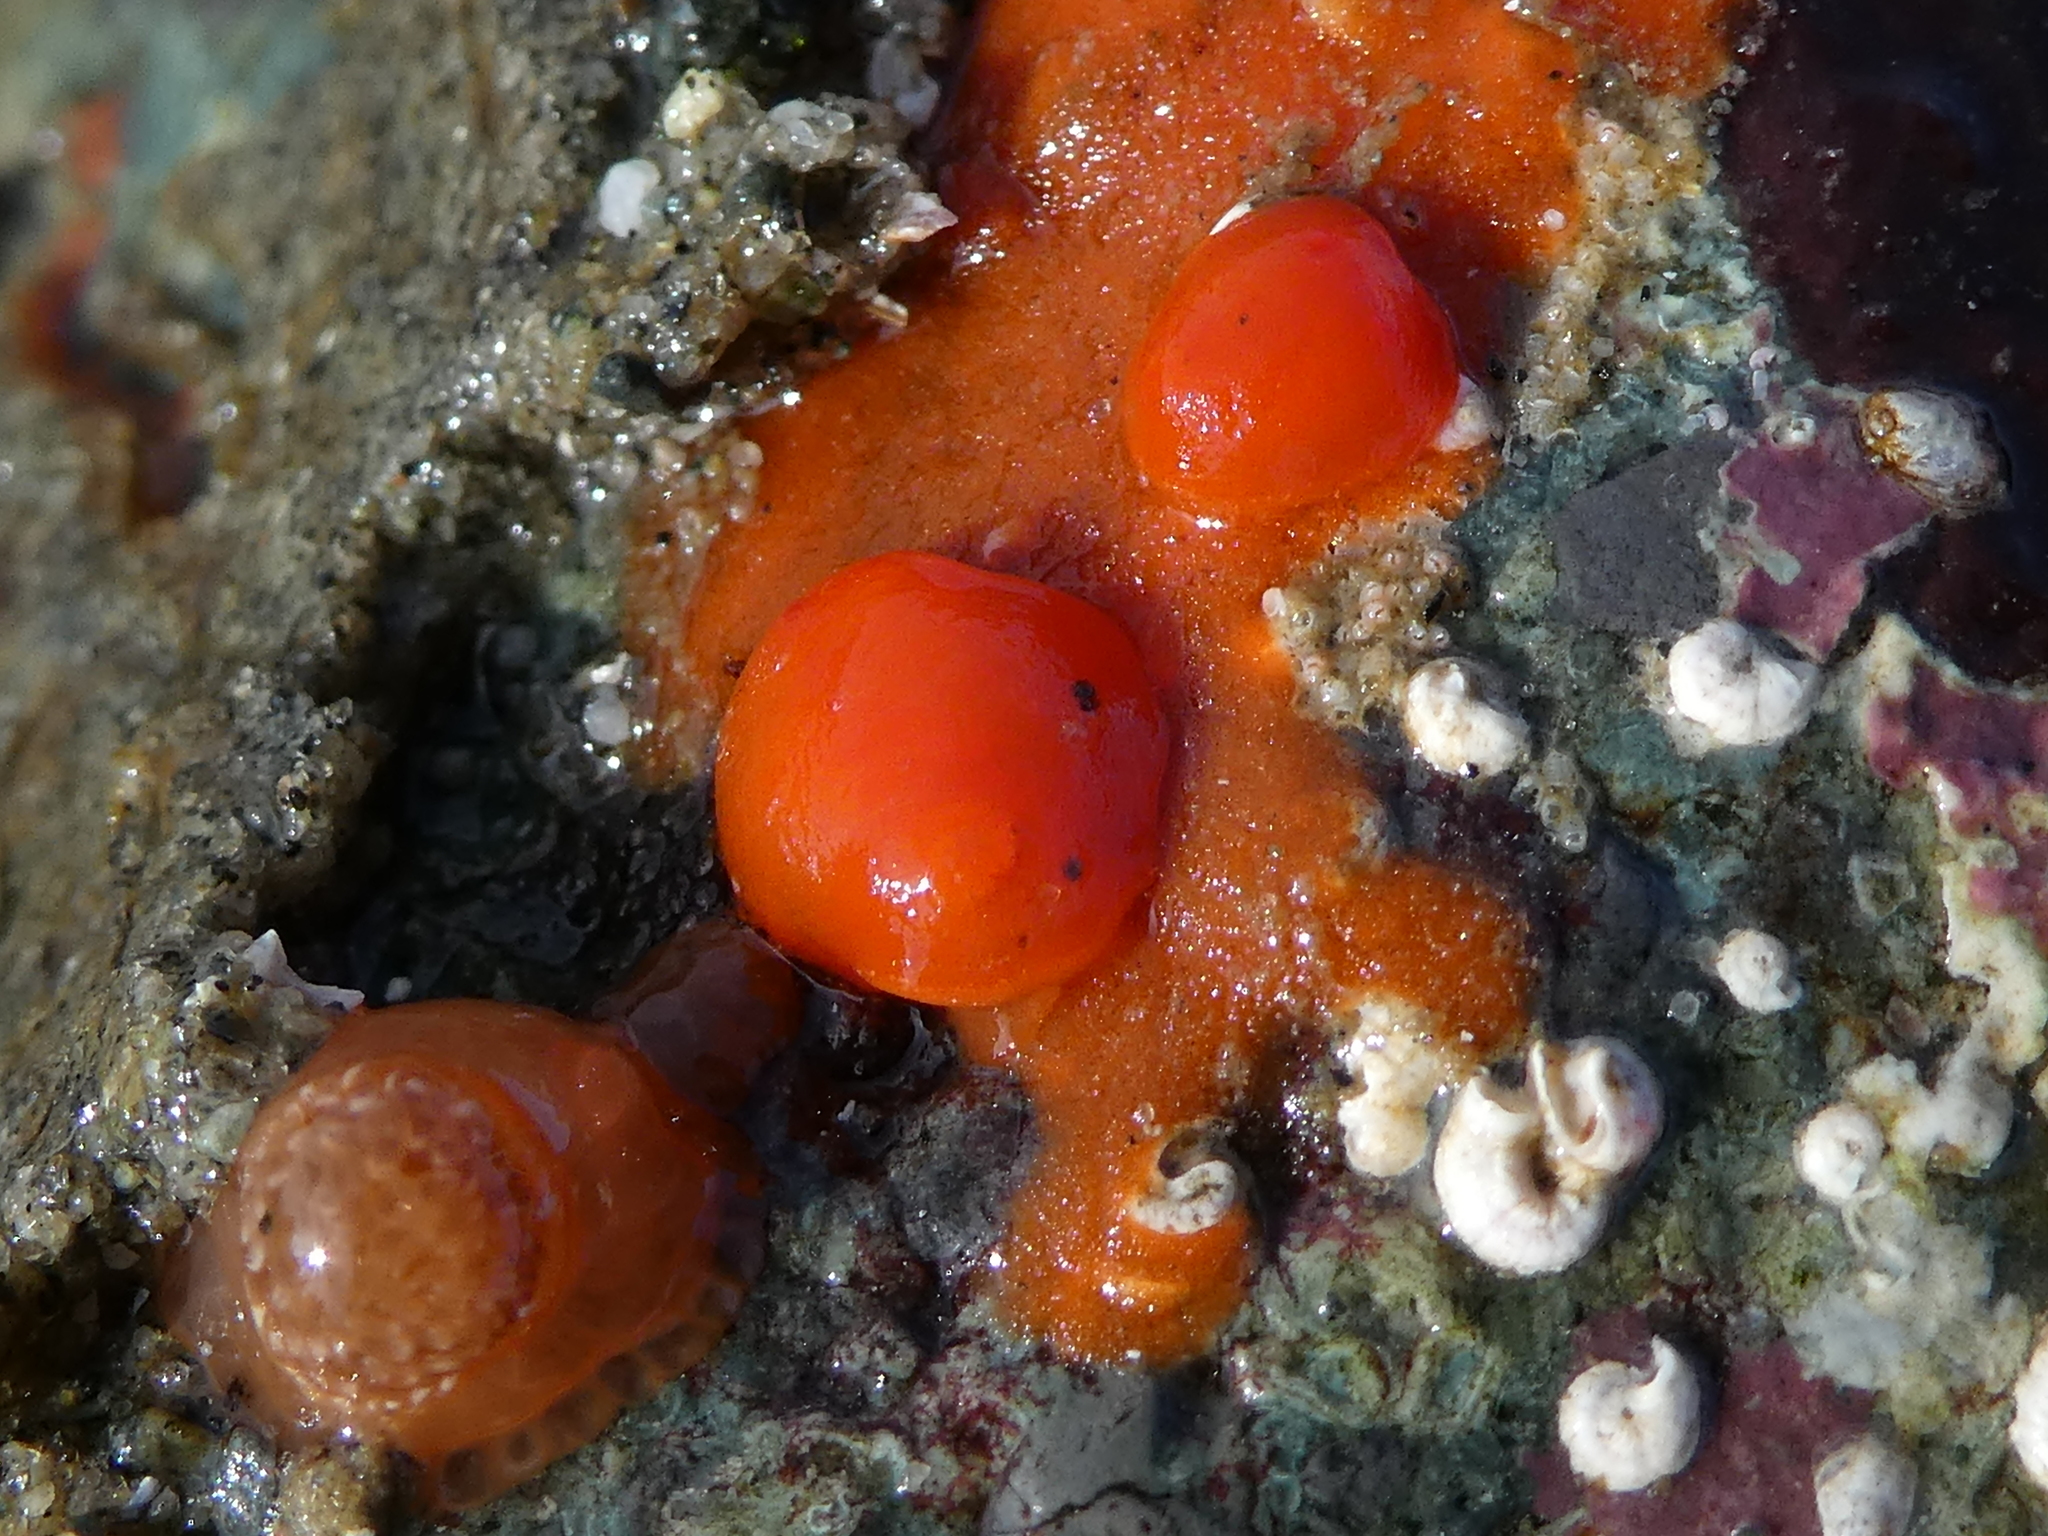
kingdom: Animalia
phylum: Mollusca
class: Gastropoda
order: Nudibranchia
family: Discodorididae
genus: Rostanga
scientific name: Rostanga pulchra
